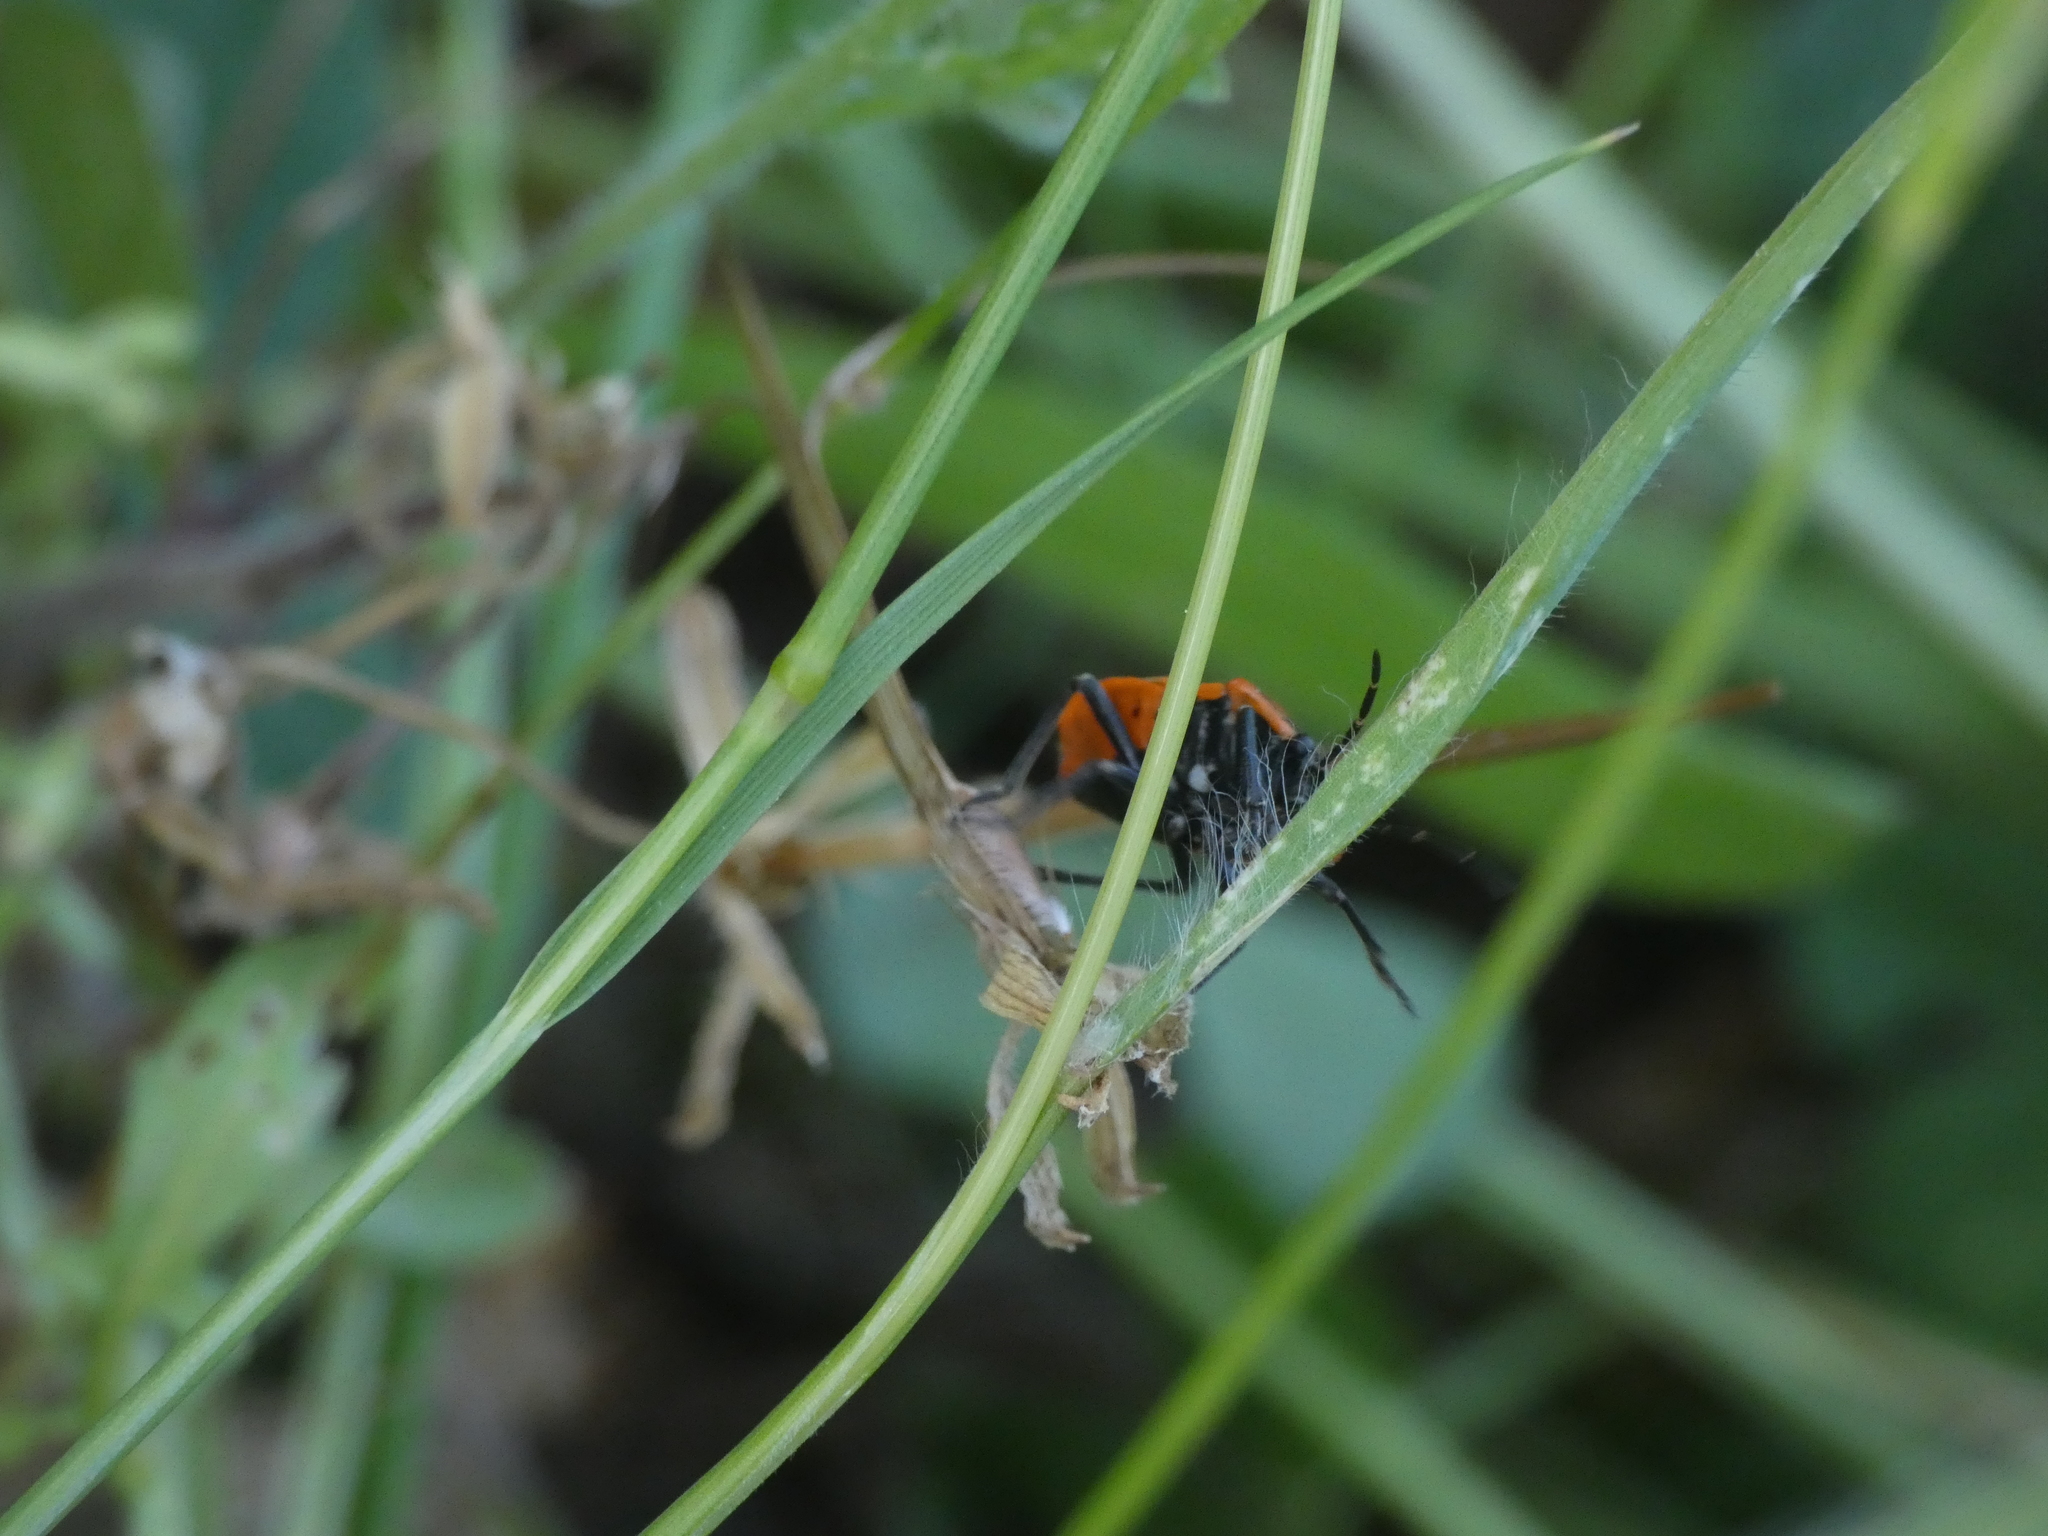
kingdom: Animalia
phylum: Arthropoda
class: Insecta
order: Hemiptera
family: Pentatomidae
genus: Eurydema
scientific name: Eurydema ornata
